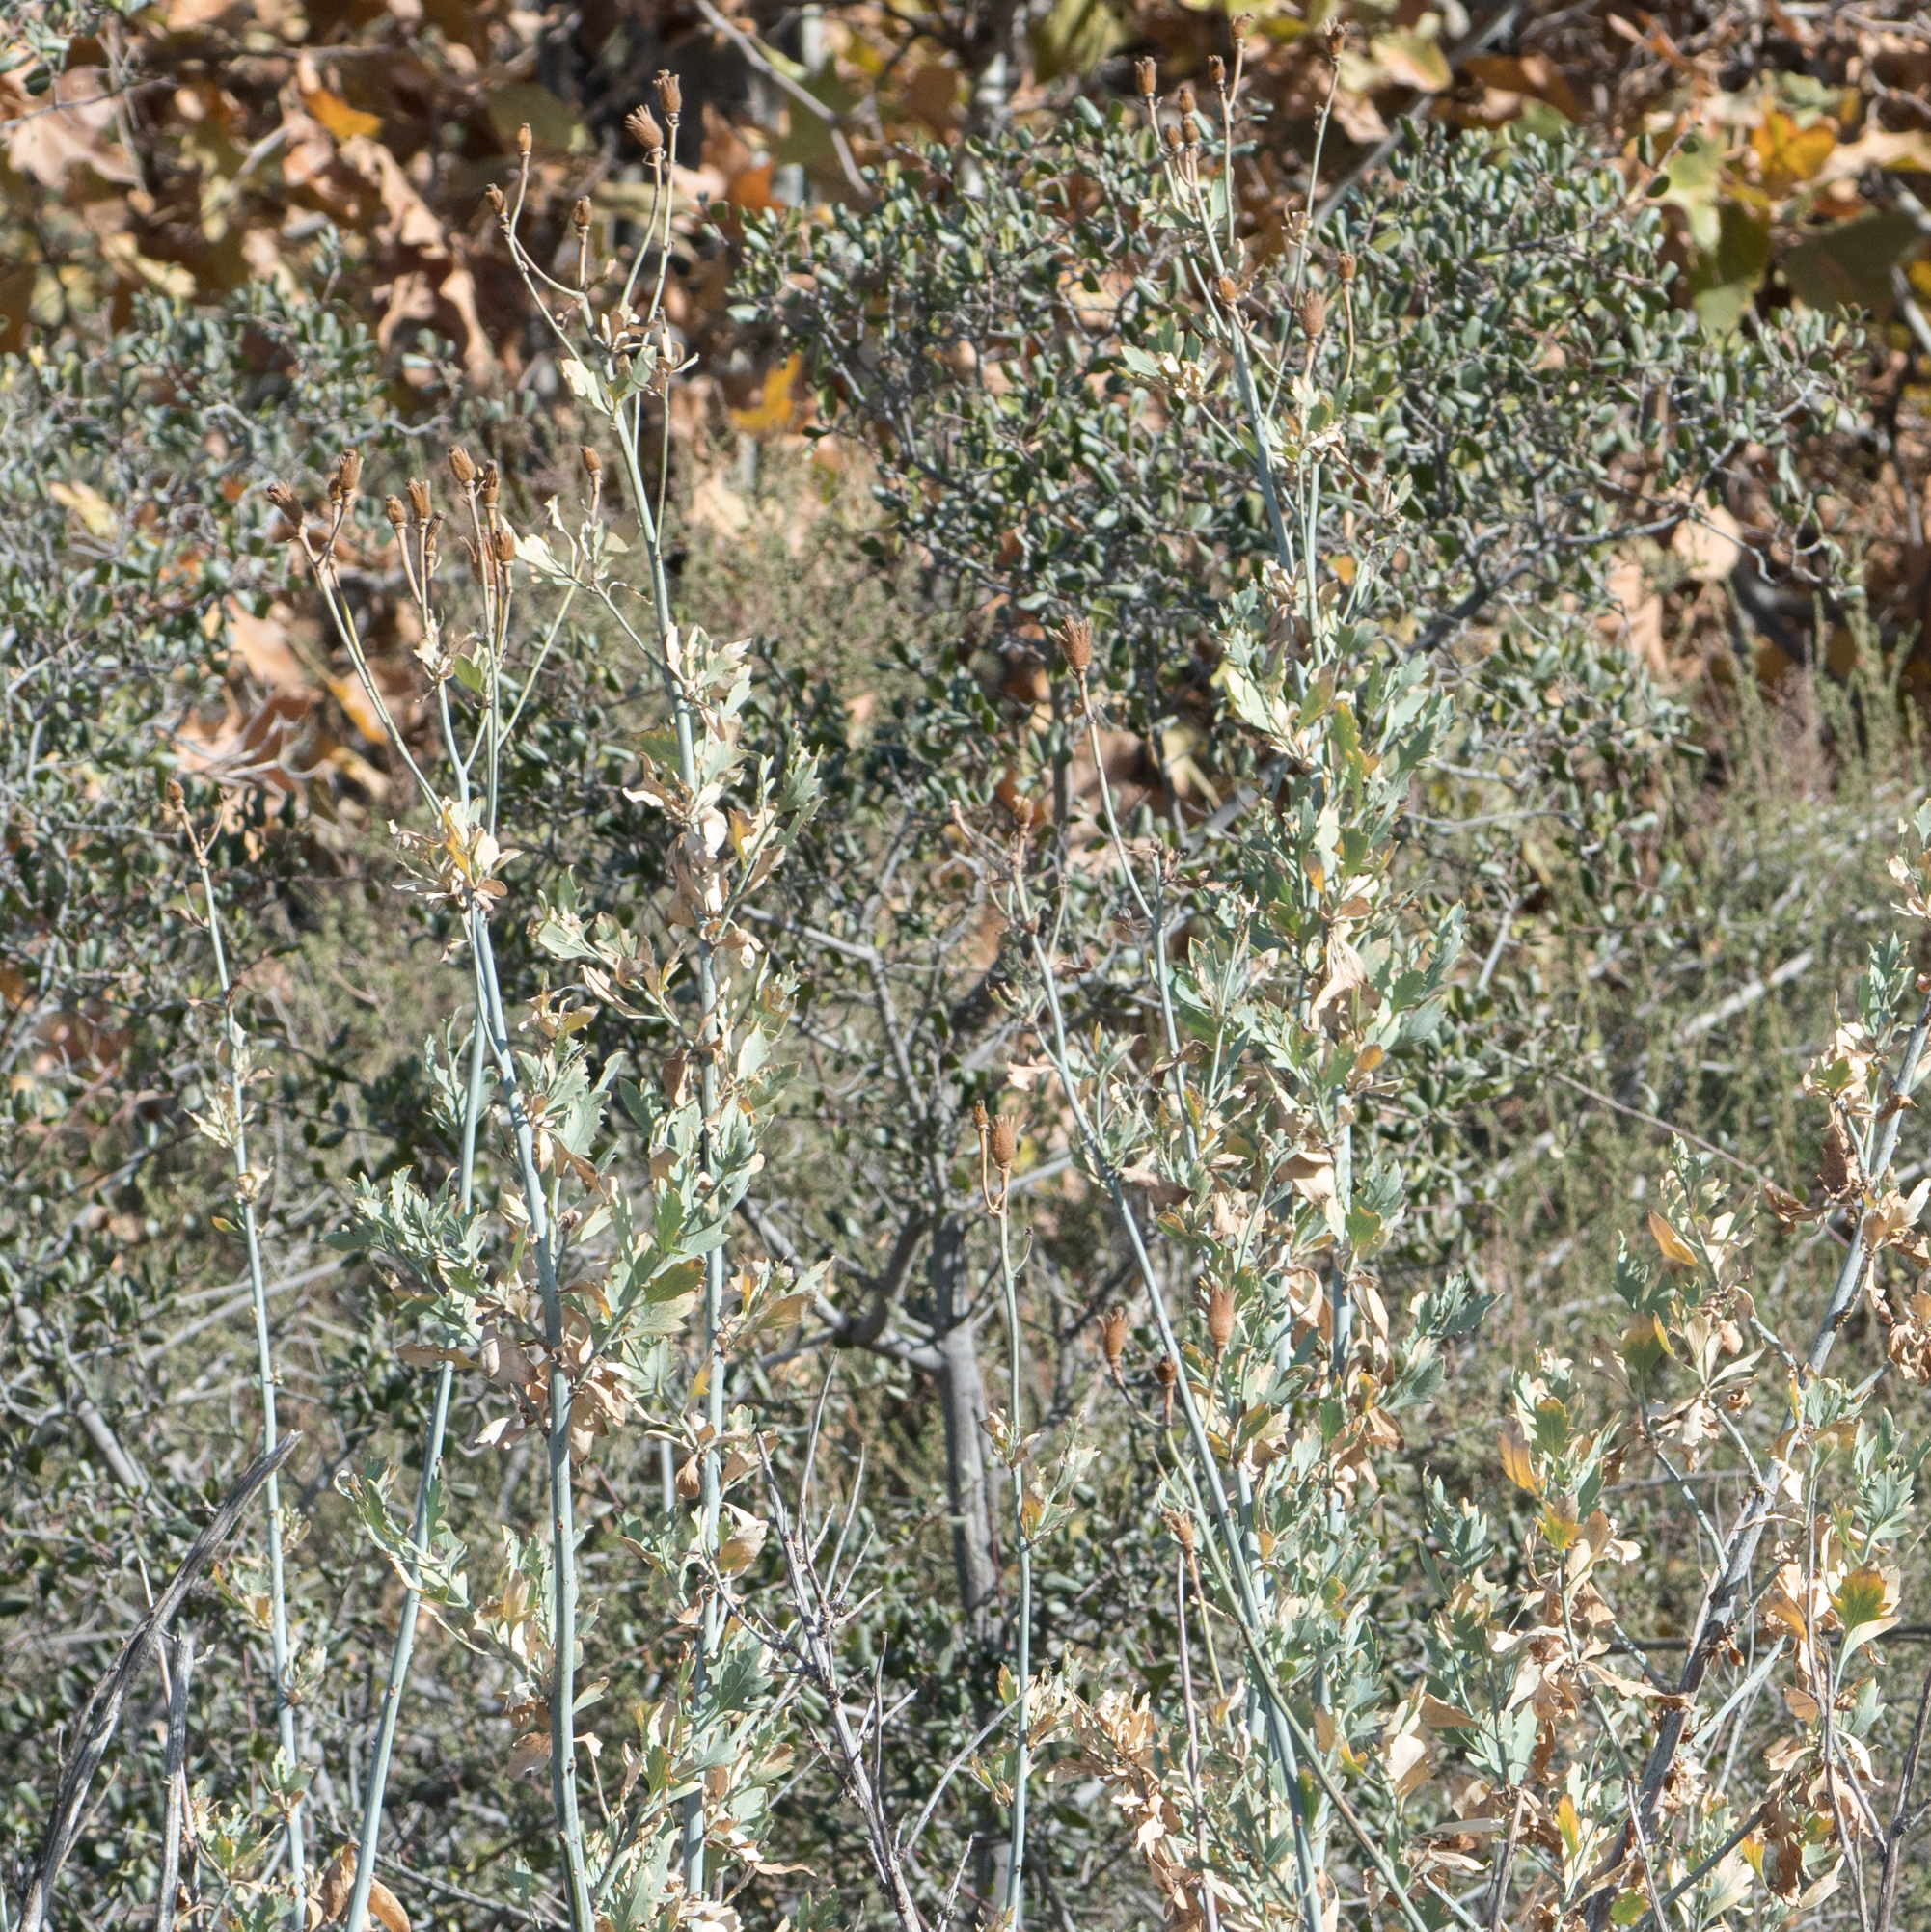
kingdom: Plantae
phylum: Tracheophyta
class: Magnoliopsida
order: Ranunculales
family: Papaveraceae
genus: Romneya
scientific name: Romneya coulteri
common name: California tree-poppy
